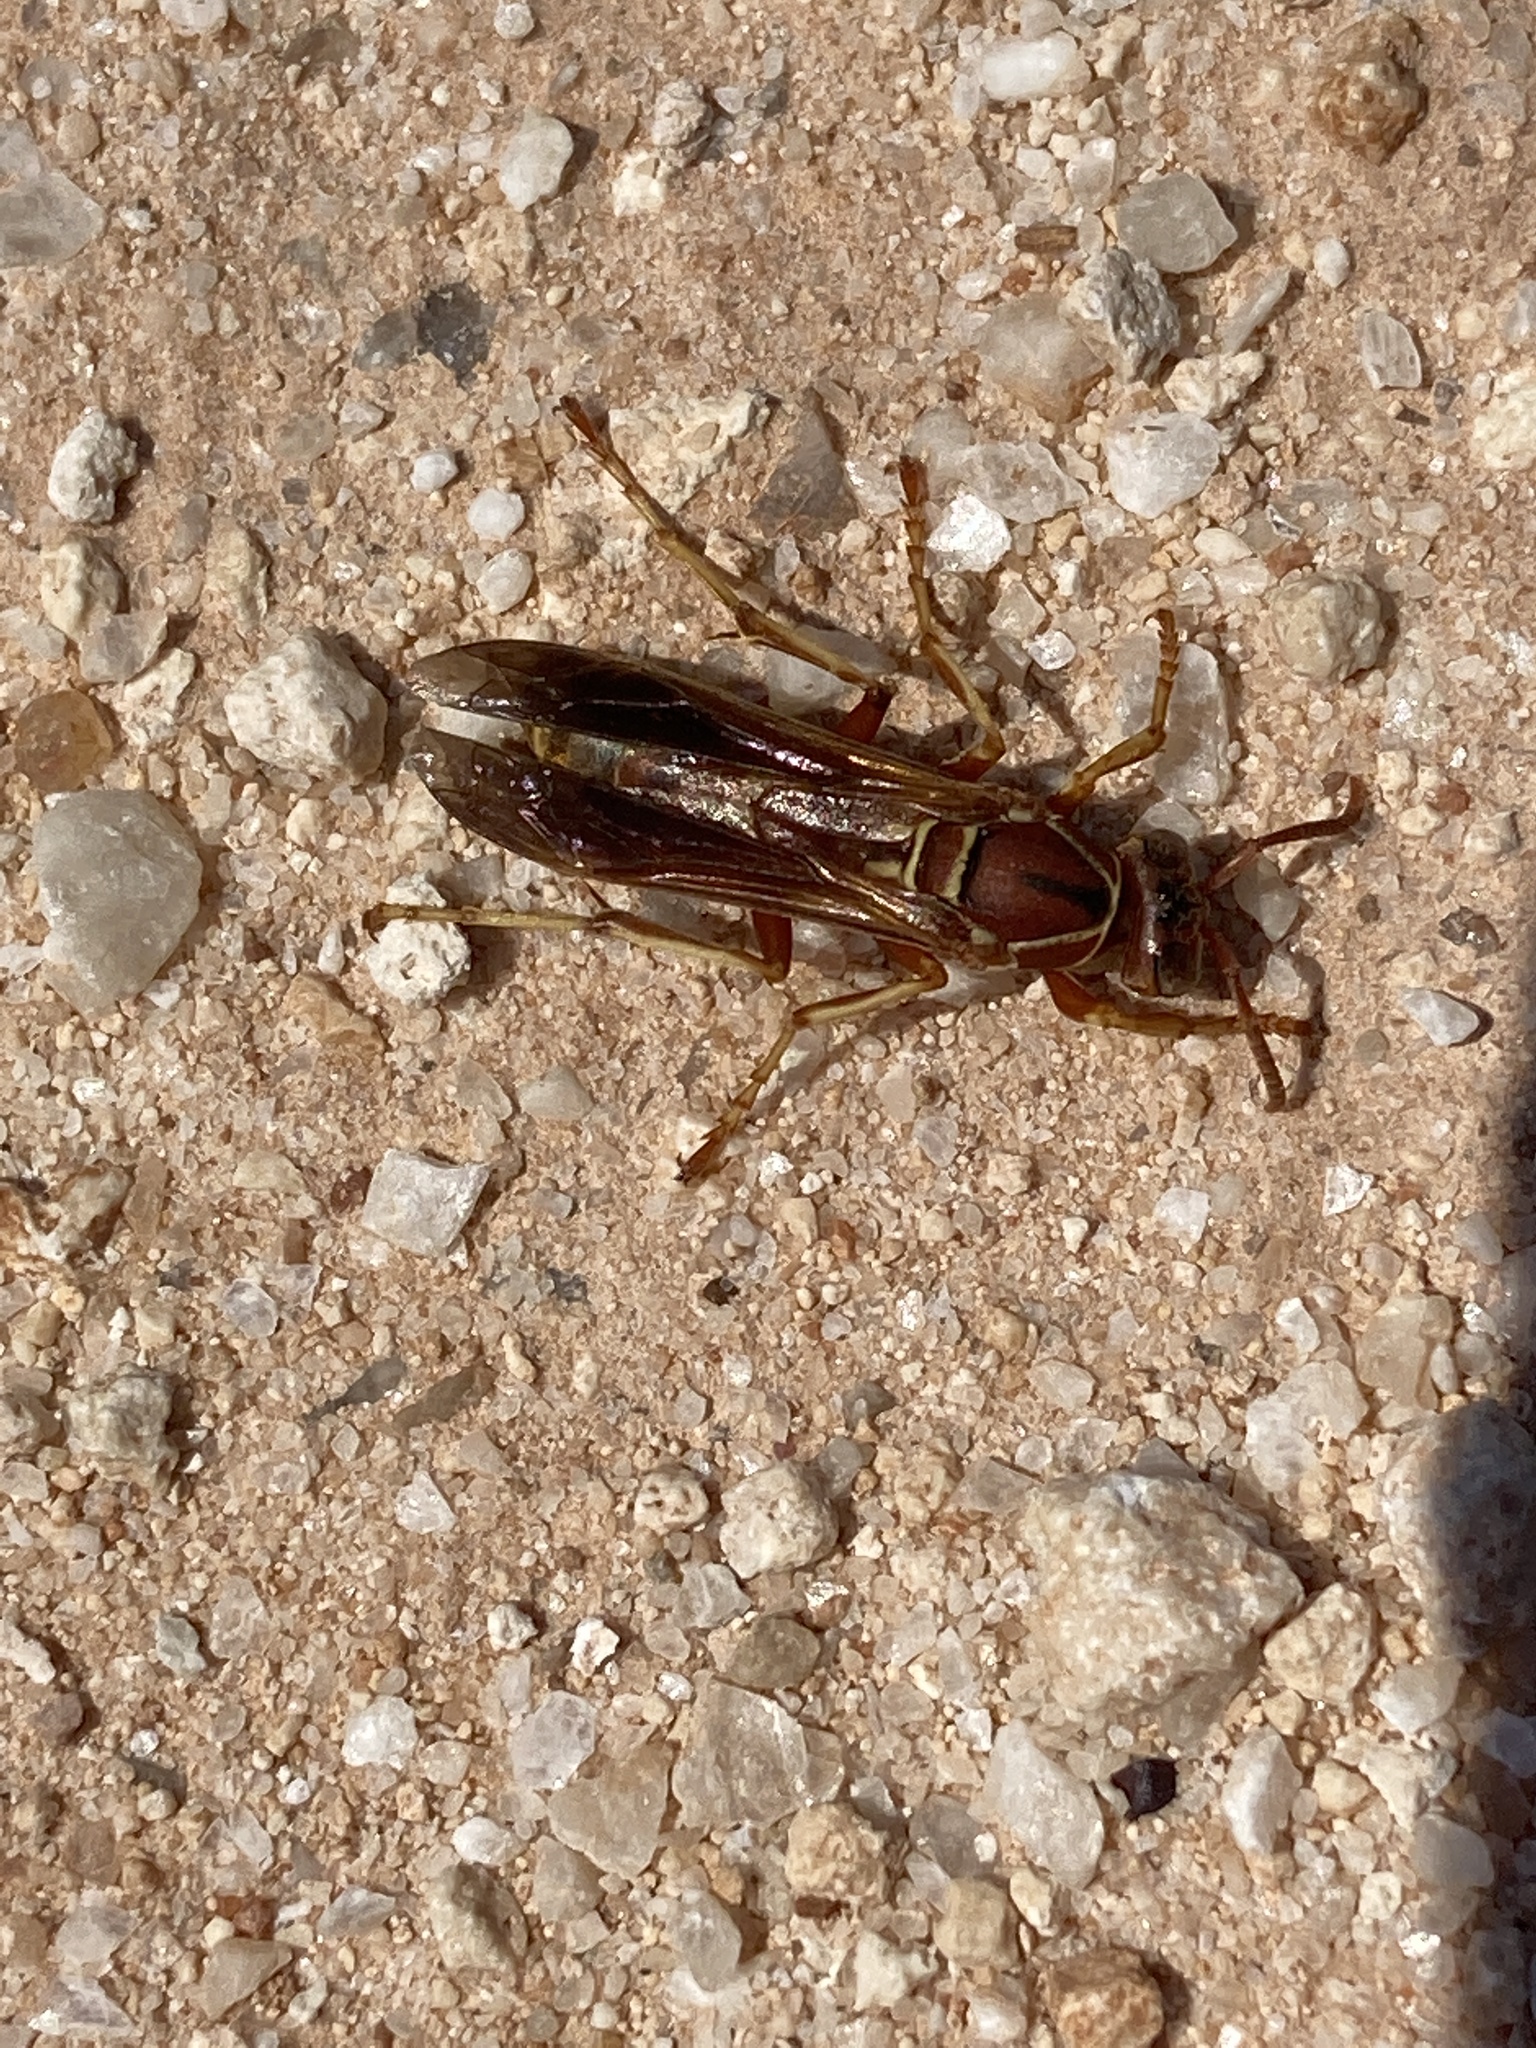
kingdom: Animalia
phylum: Arthropoda
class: Insecta
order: Hymenoptera
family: Eumenidae
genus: Polistes
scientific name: Polistes fuscatus
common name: Dark paper wasp
